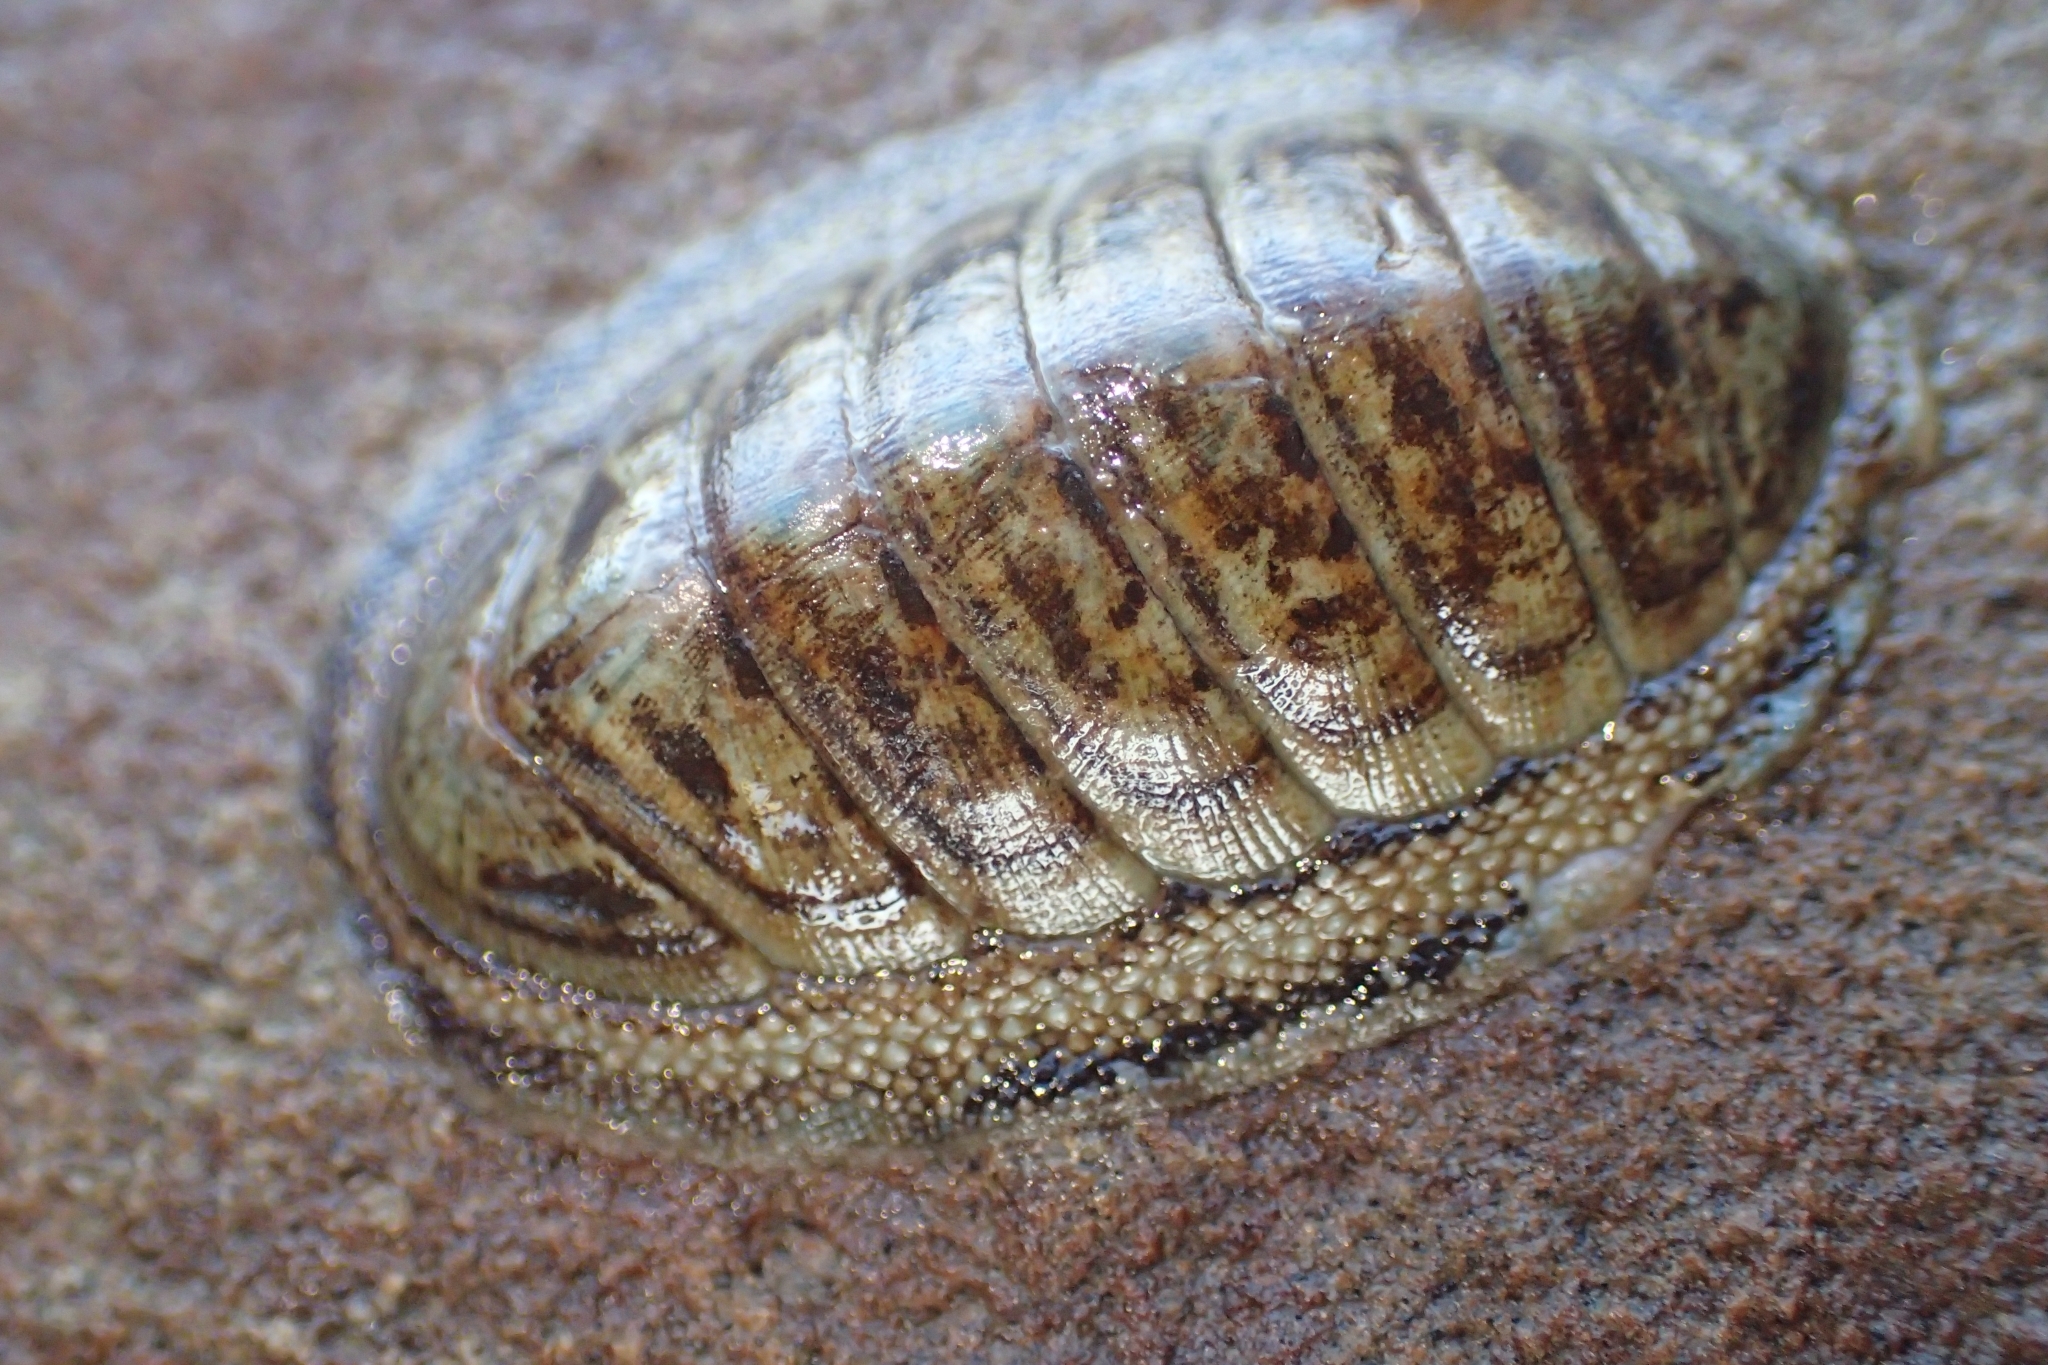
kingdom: Animalia
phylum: Mollusca
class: Polyplacophora
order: Chitonida
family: Chitonidae
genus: Chiton
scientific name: Chiton glaucus
